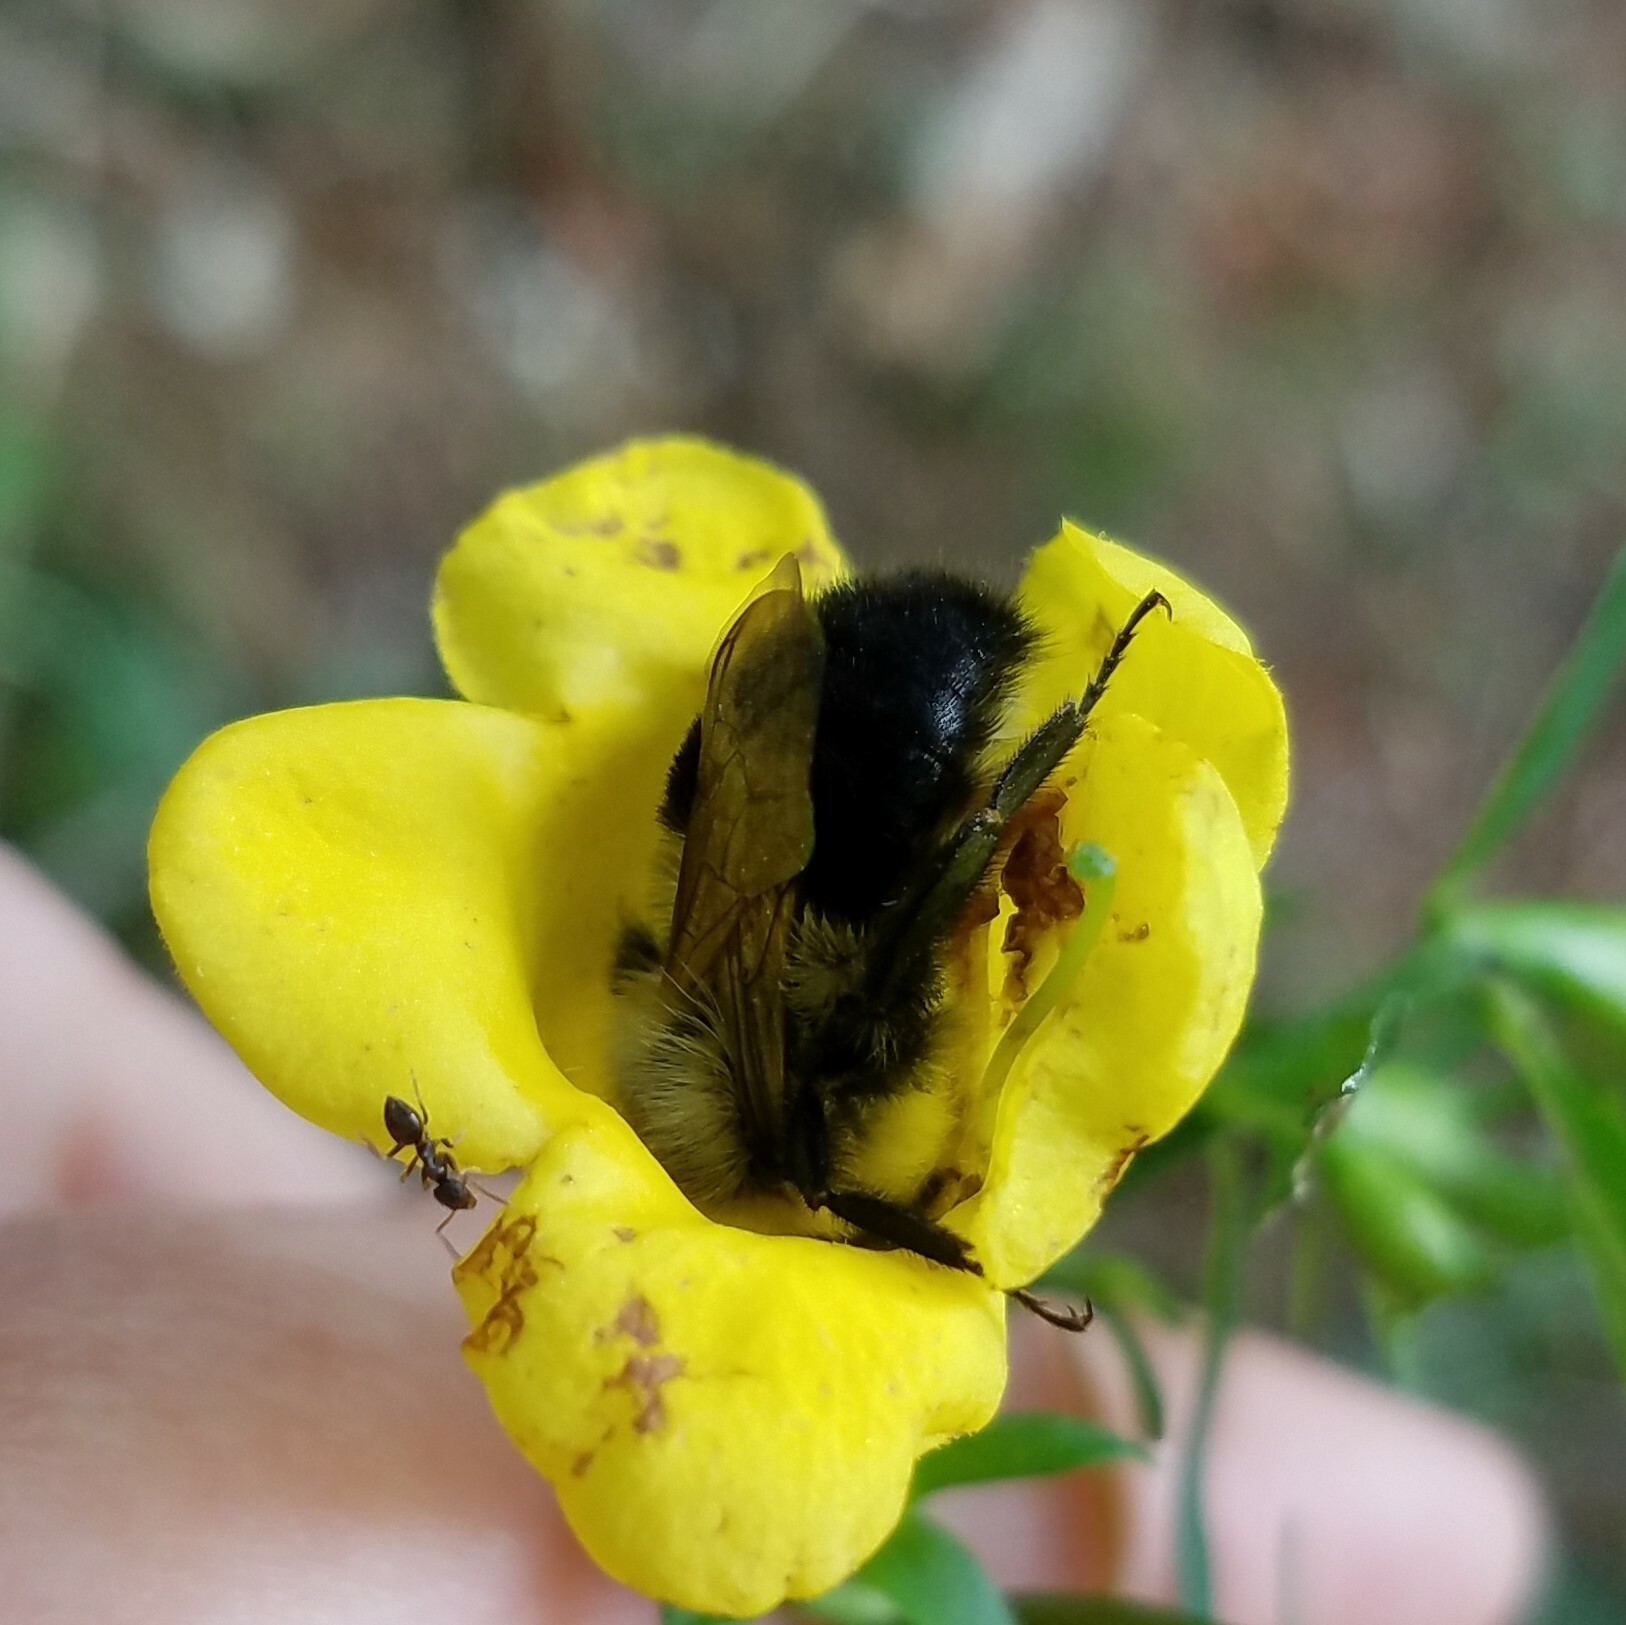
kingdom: Animalia
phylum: Arthropoda
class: Insecta
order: Hymenoptera
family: Apidae
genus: Bombus
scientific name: Bombus impatiens
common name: Common eastern bumble bee
